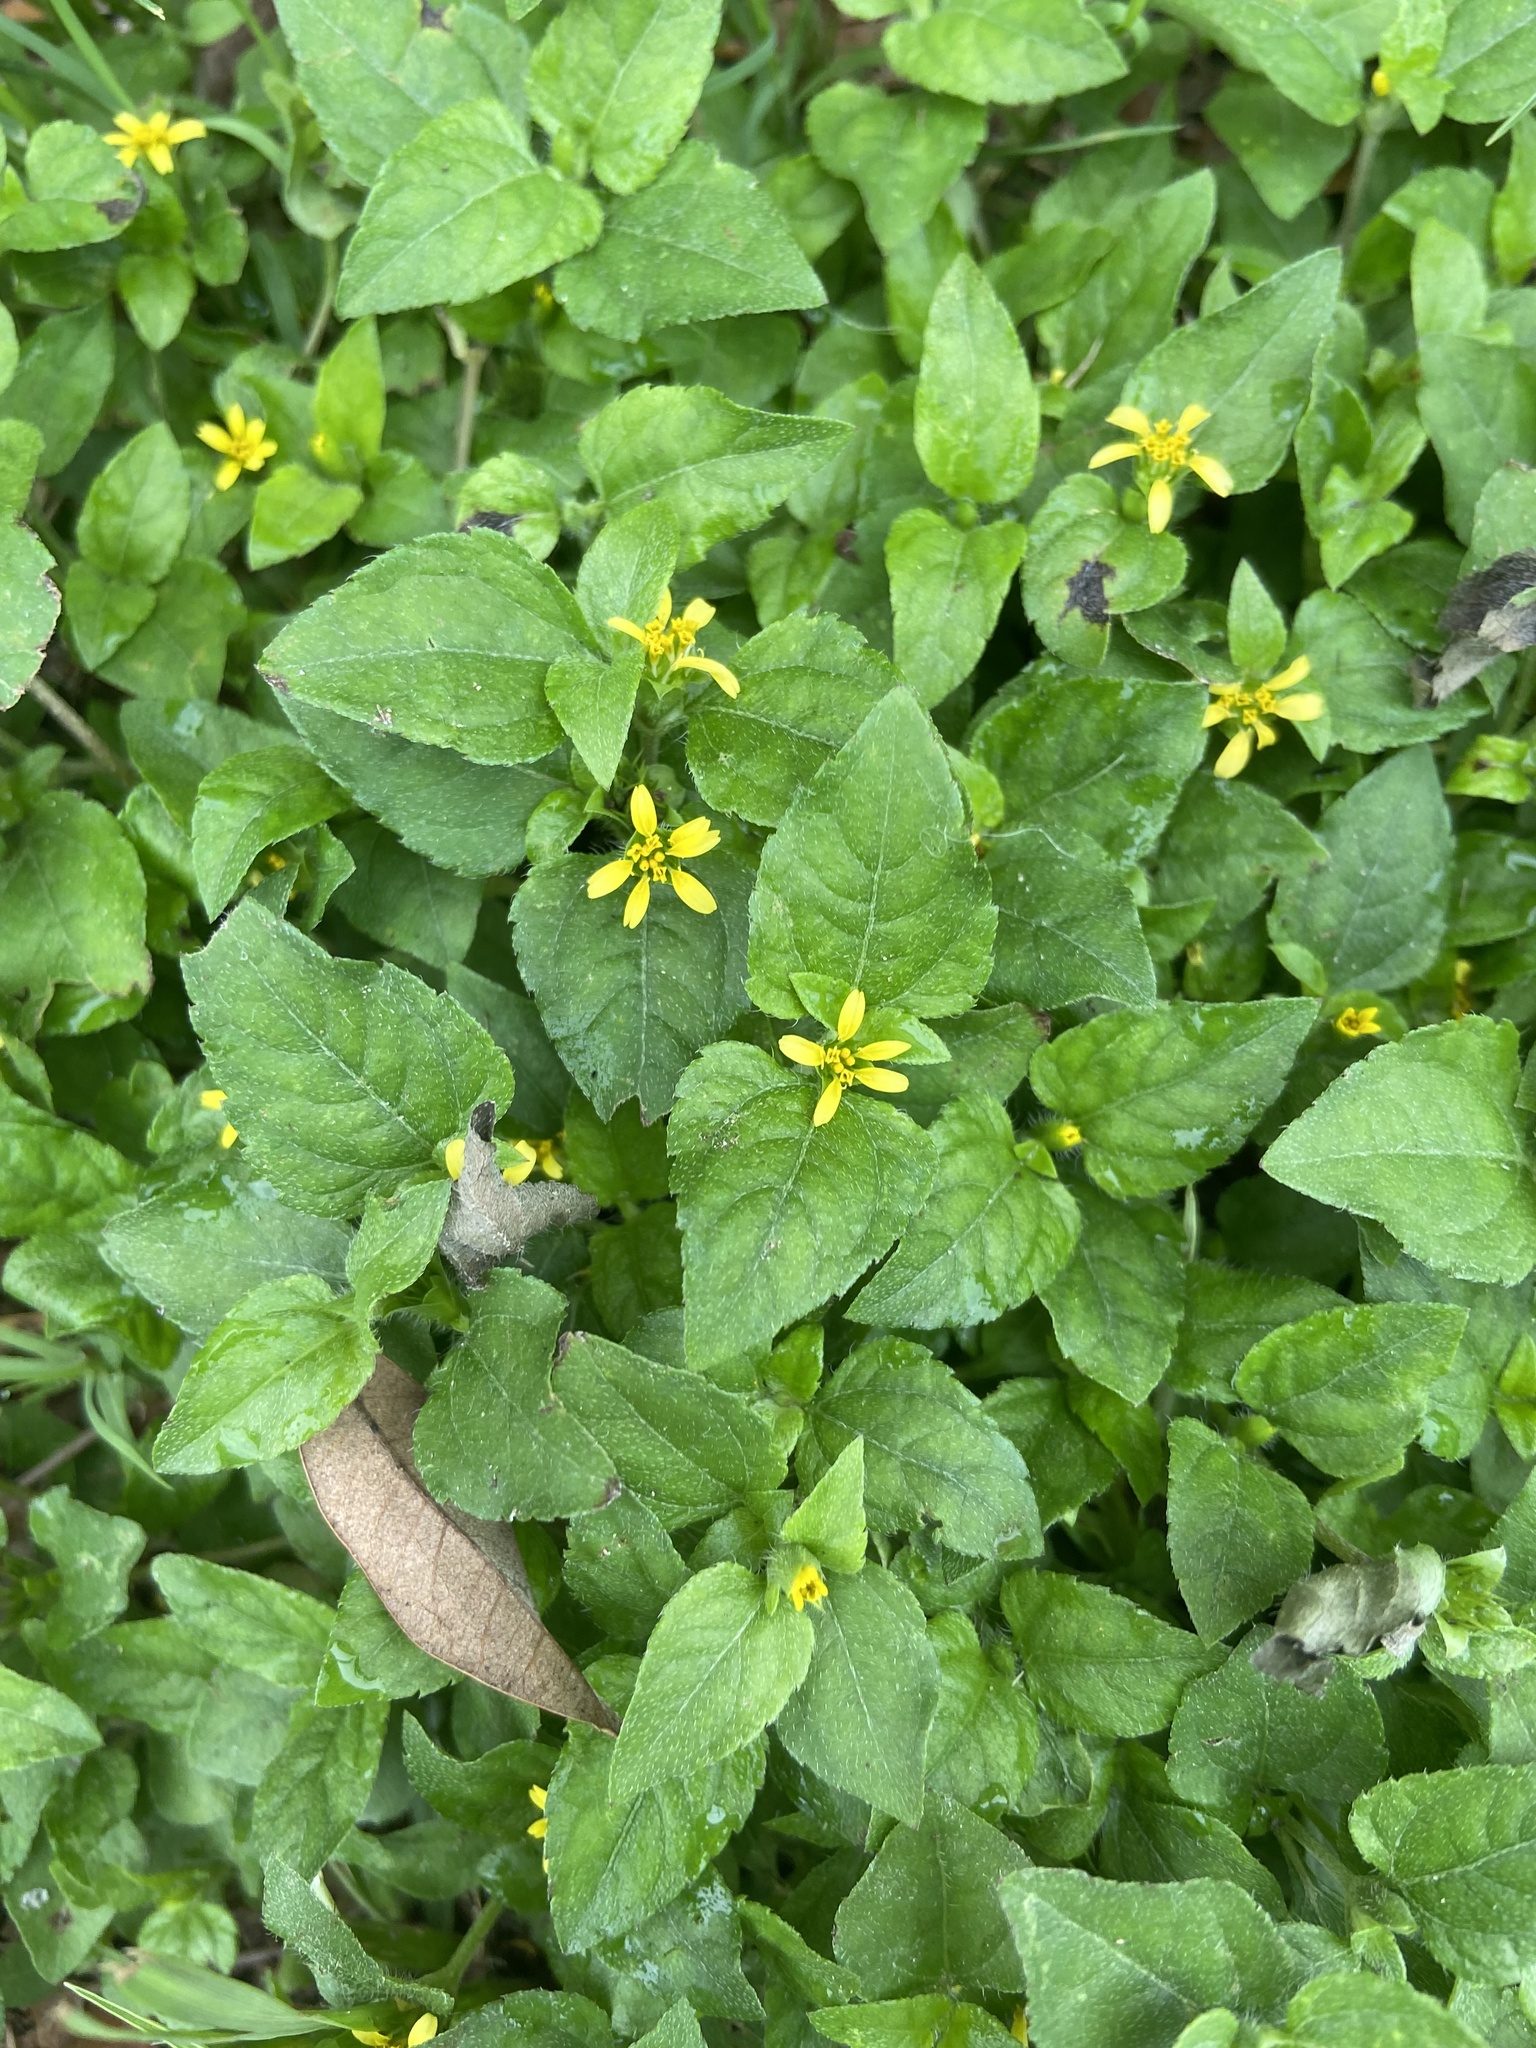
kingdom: Plantae
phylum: Tracheophyta
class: Magnoliopsida
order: Asterales
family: Asteraceae
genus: Calyptocarpus
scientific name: Calyptocarpus vialis
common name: Straggler daisy
